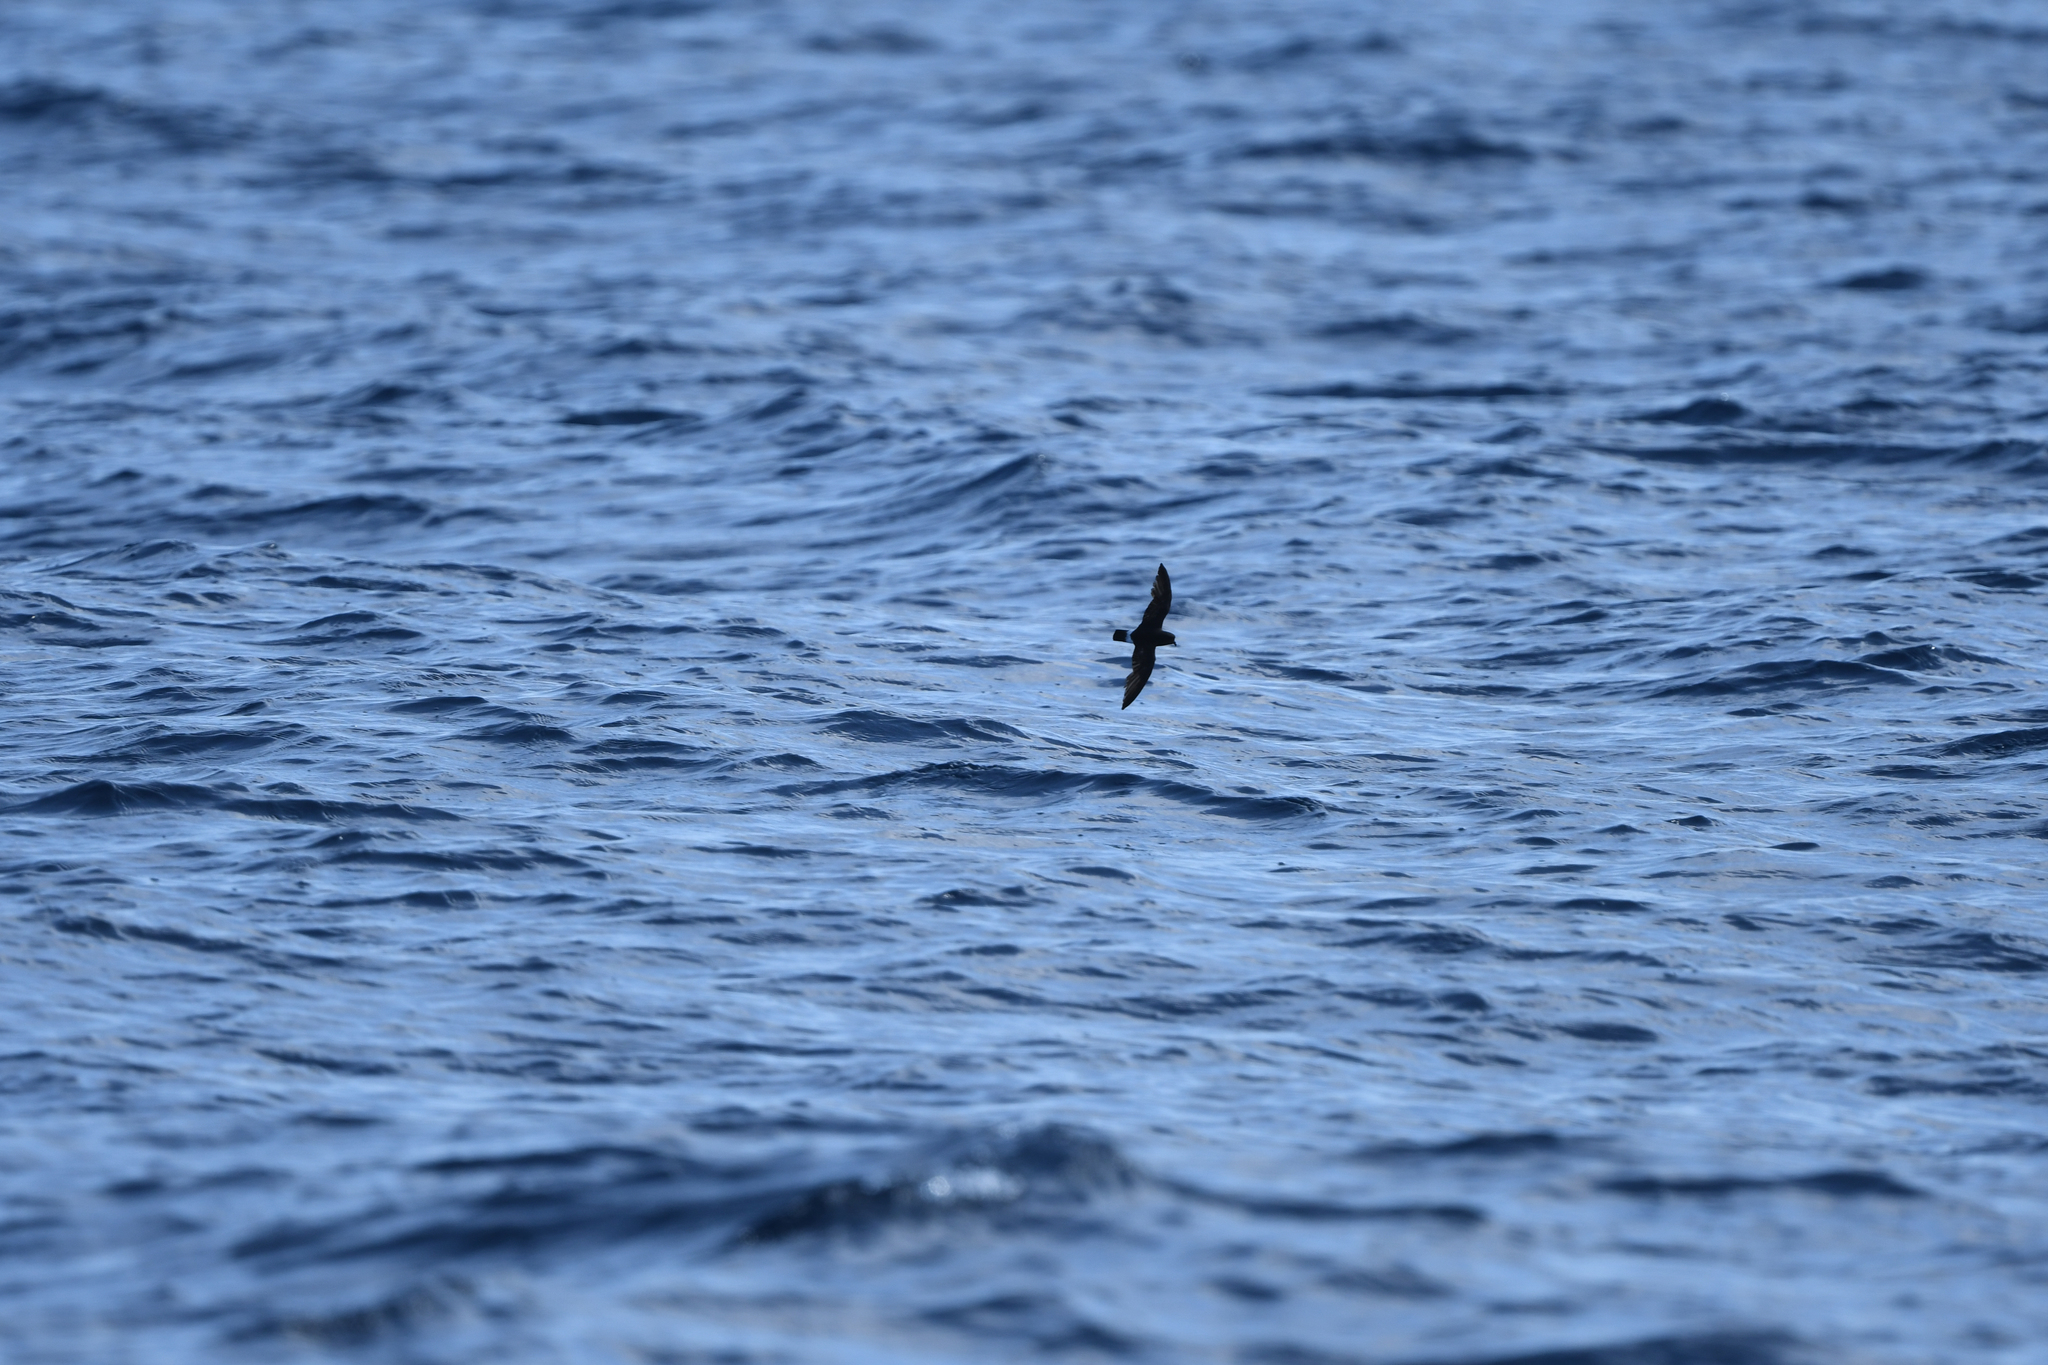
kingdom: Animalia
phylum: Chordata
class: Aves
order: Procellariiformes
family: Hydrobatidae
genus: Hydrobates
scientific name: Hydrobates pelagicus
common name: European storm-petrel
